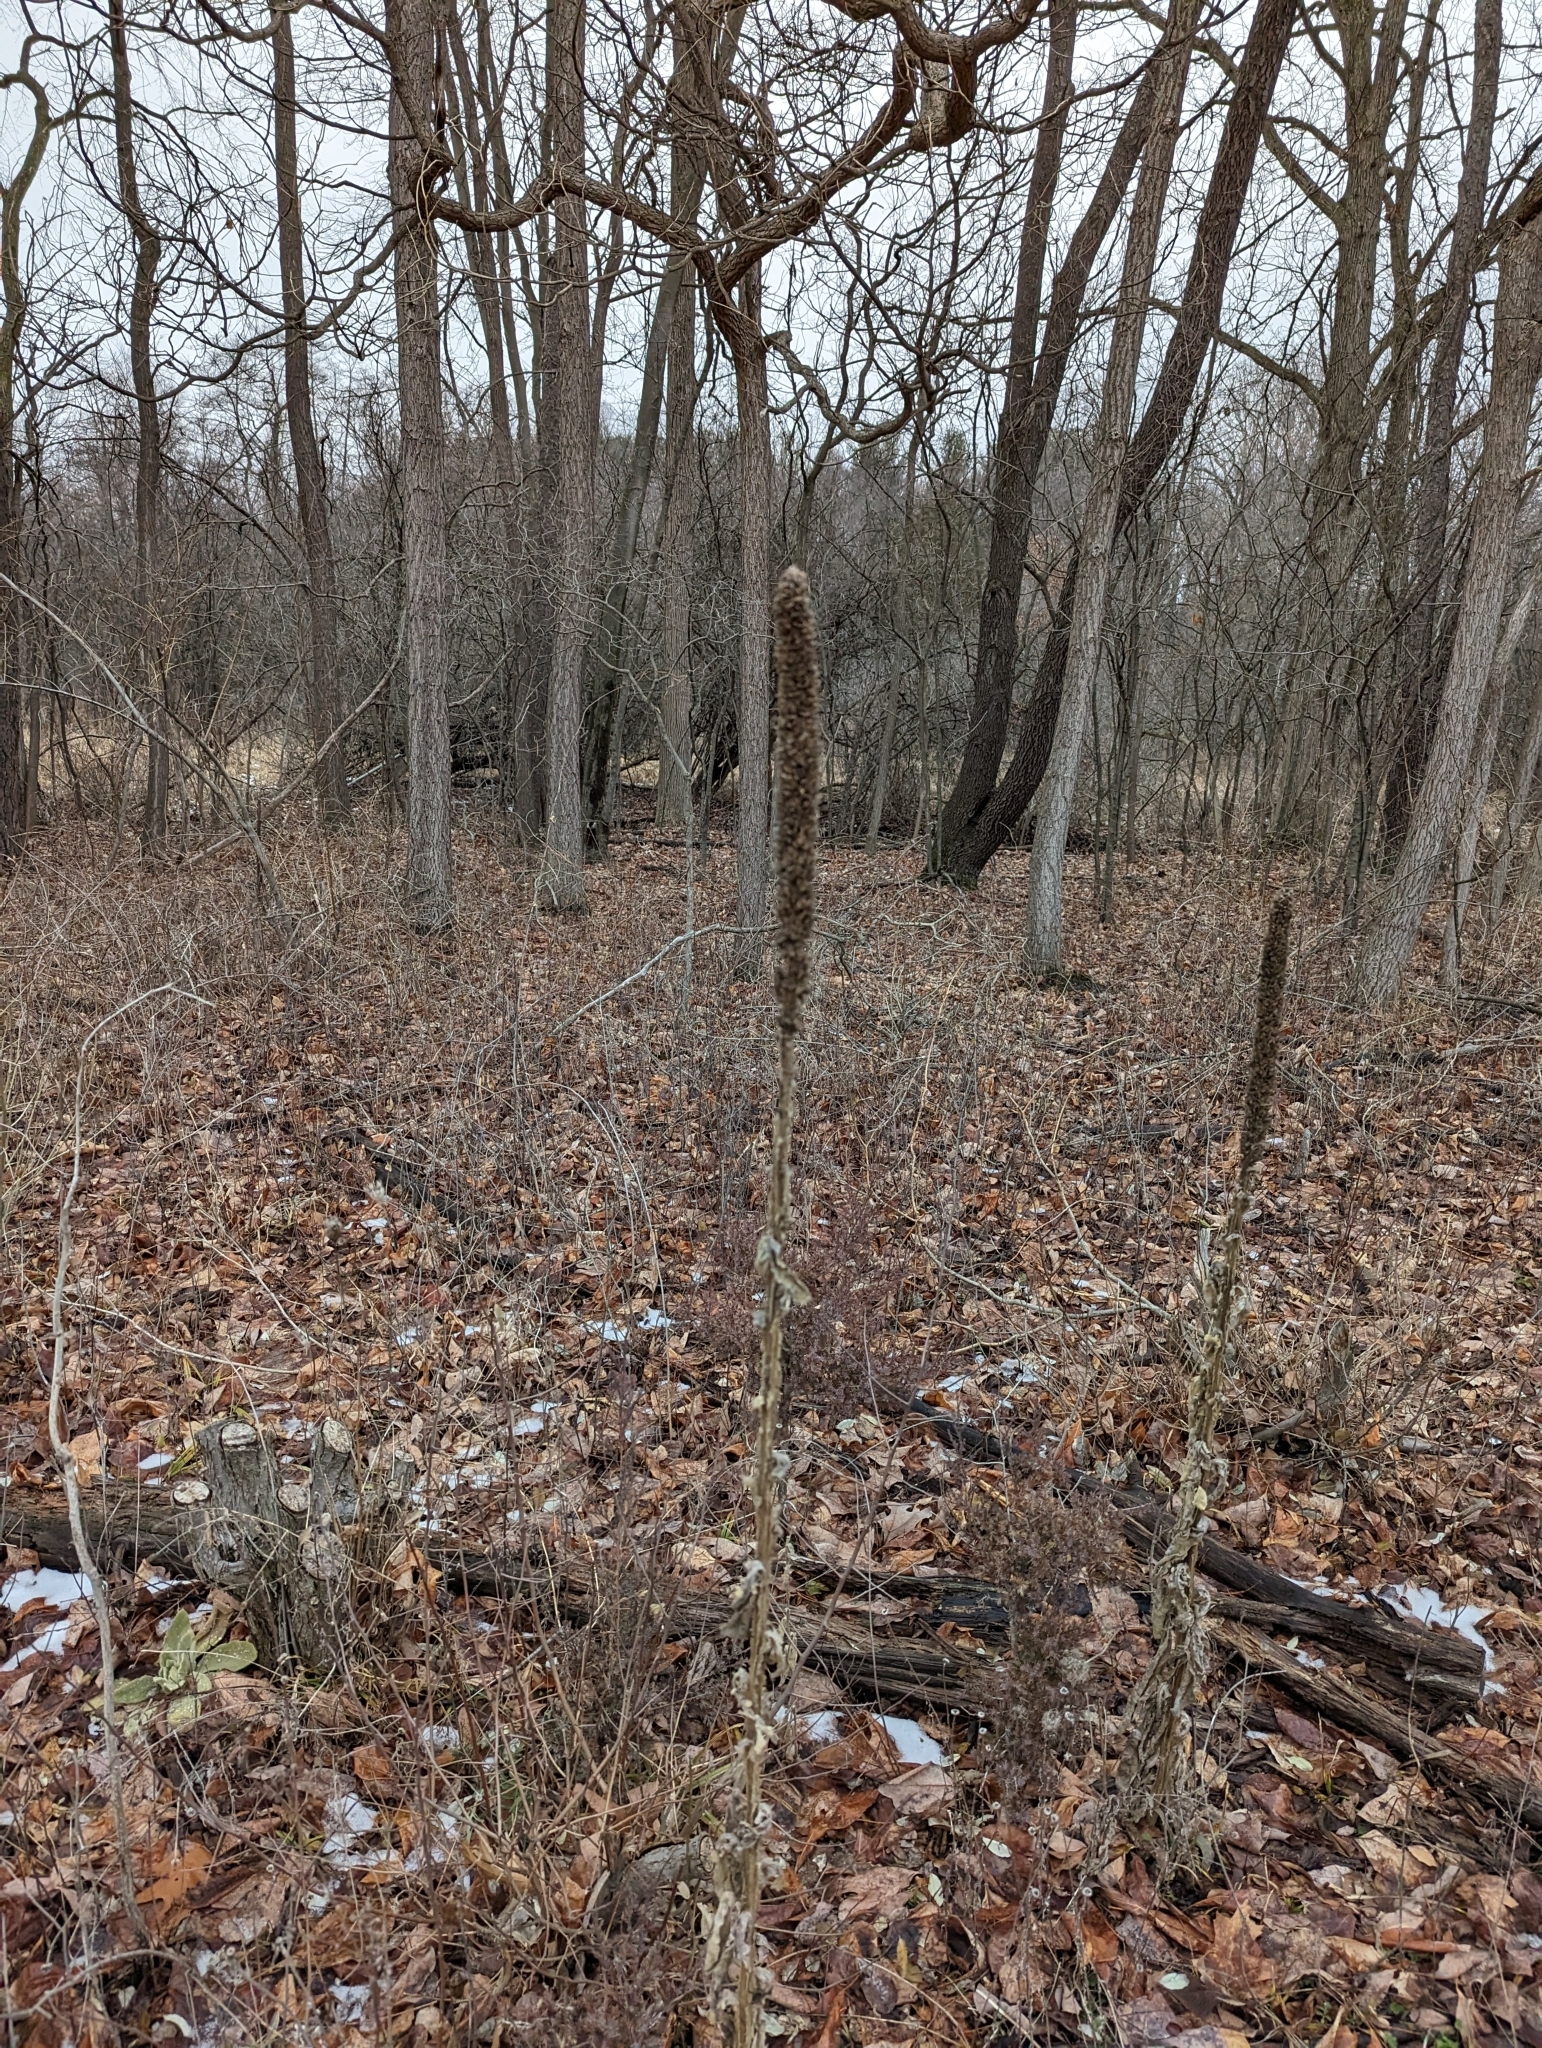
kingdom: Plantae
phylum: Tracheophyta
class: Magnoliopsida
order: Lamiales
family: Scrophulariaceae
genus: Verbascum
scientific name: Verbascum thapsus
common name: Common mullein
